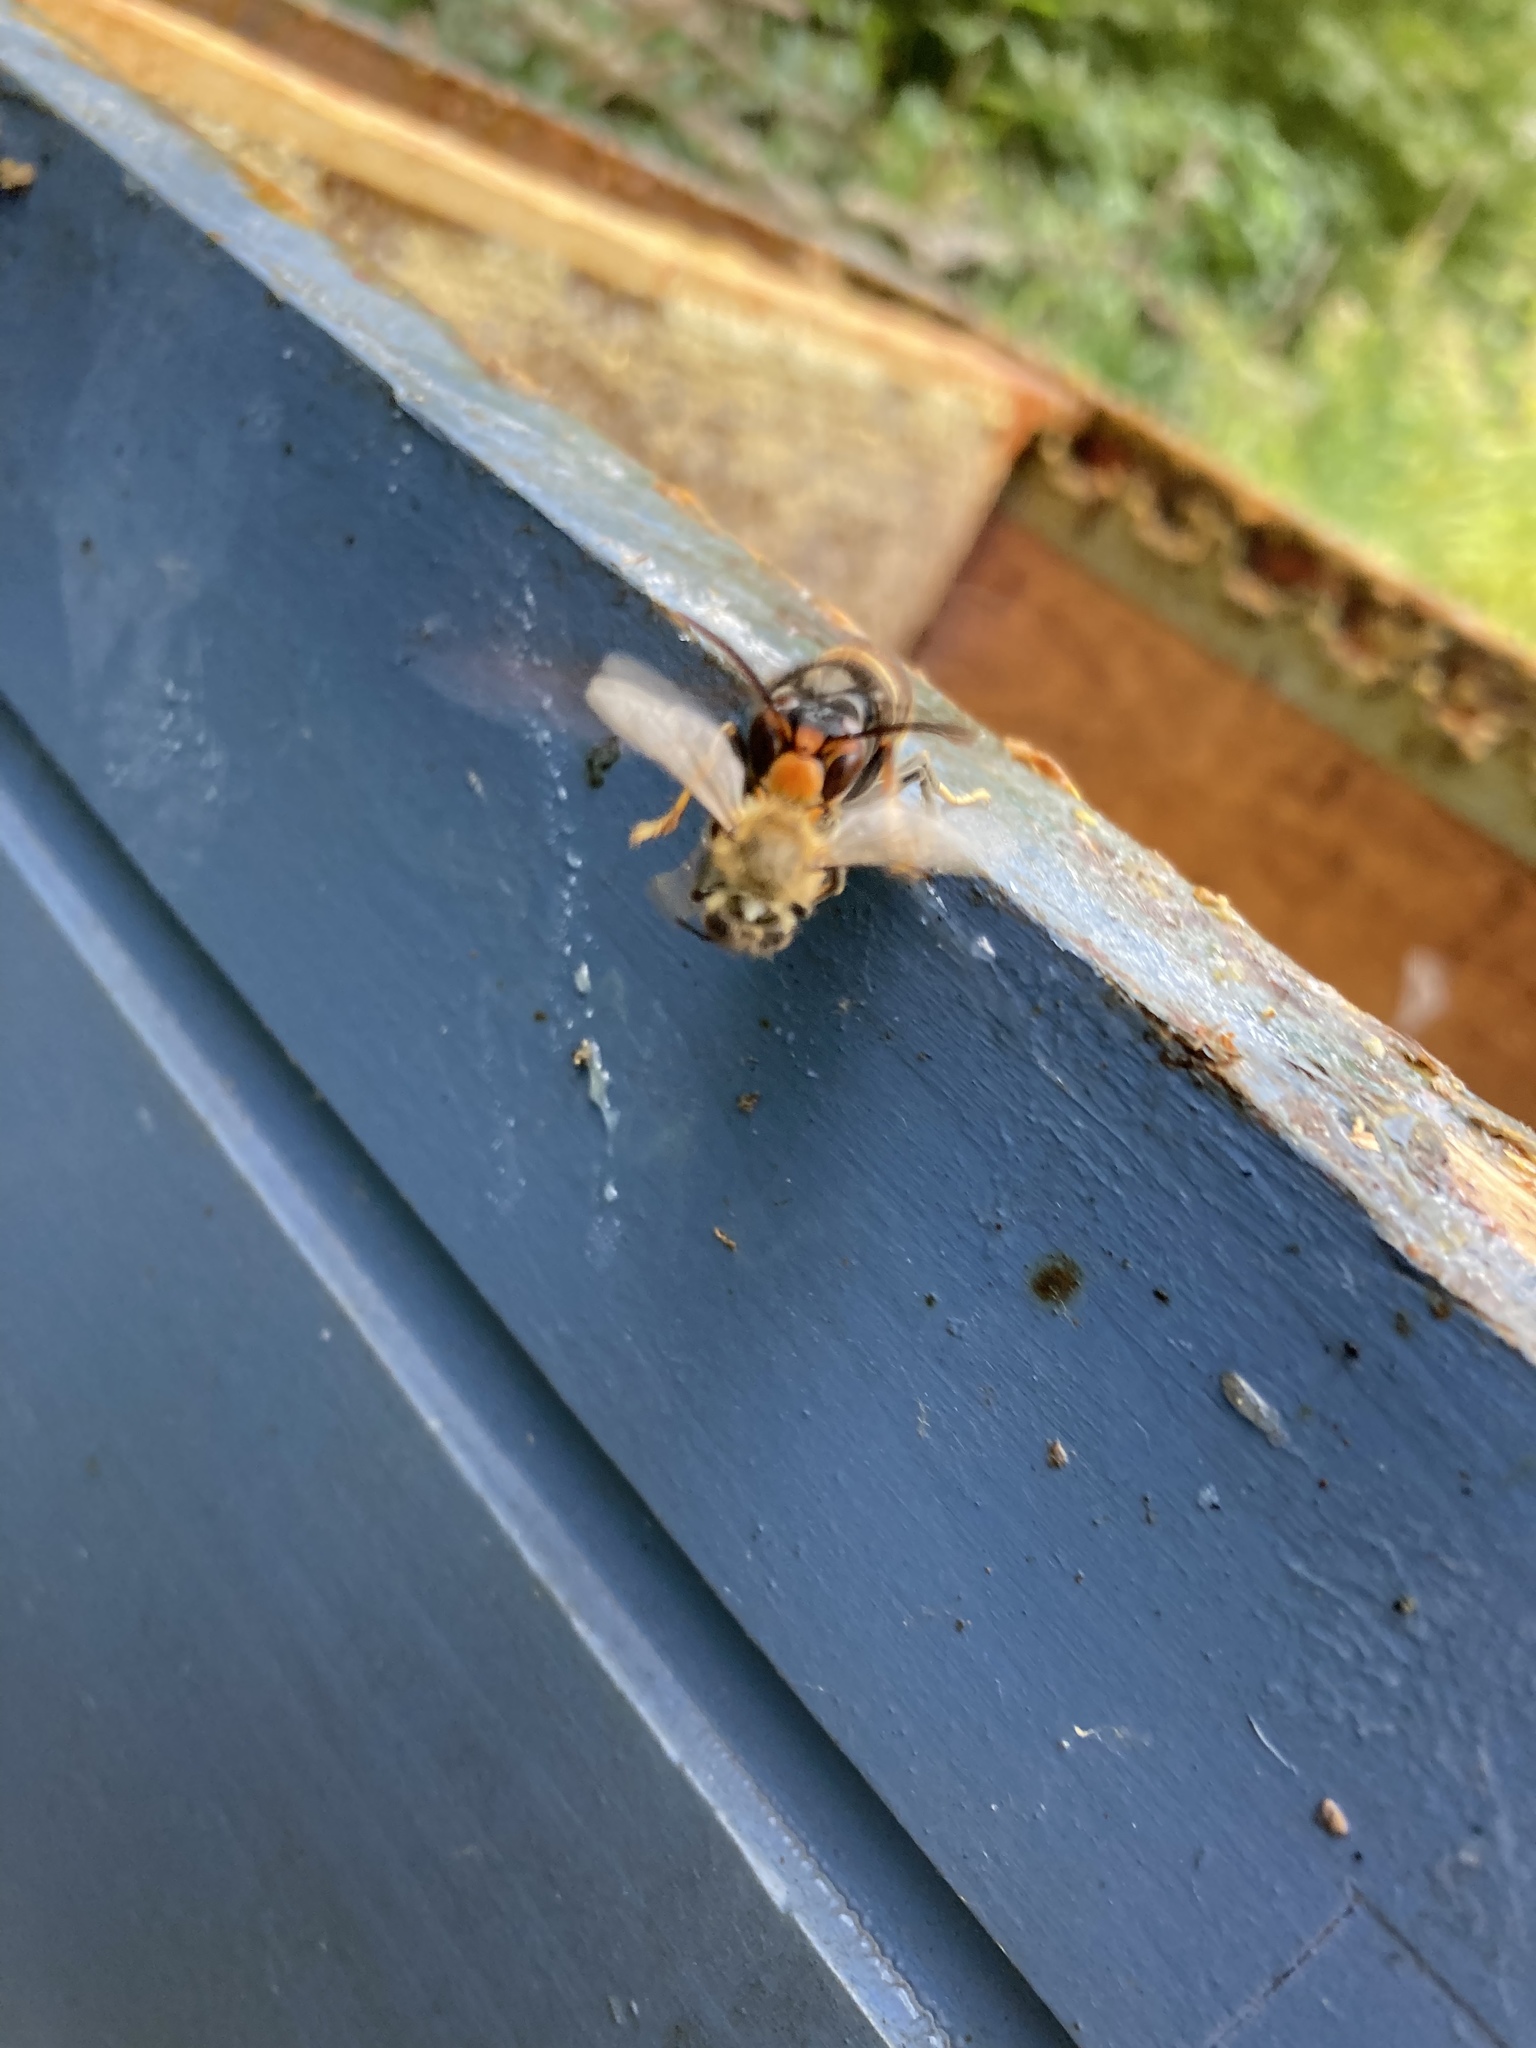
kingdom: Animalia
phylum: Arthropoda
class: Insecta
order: Hymenoptera
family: Vespidae
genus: Vespa
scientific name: Vespa velutina
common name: Asian hornet
